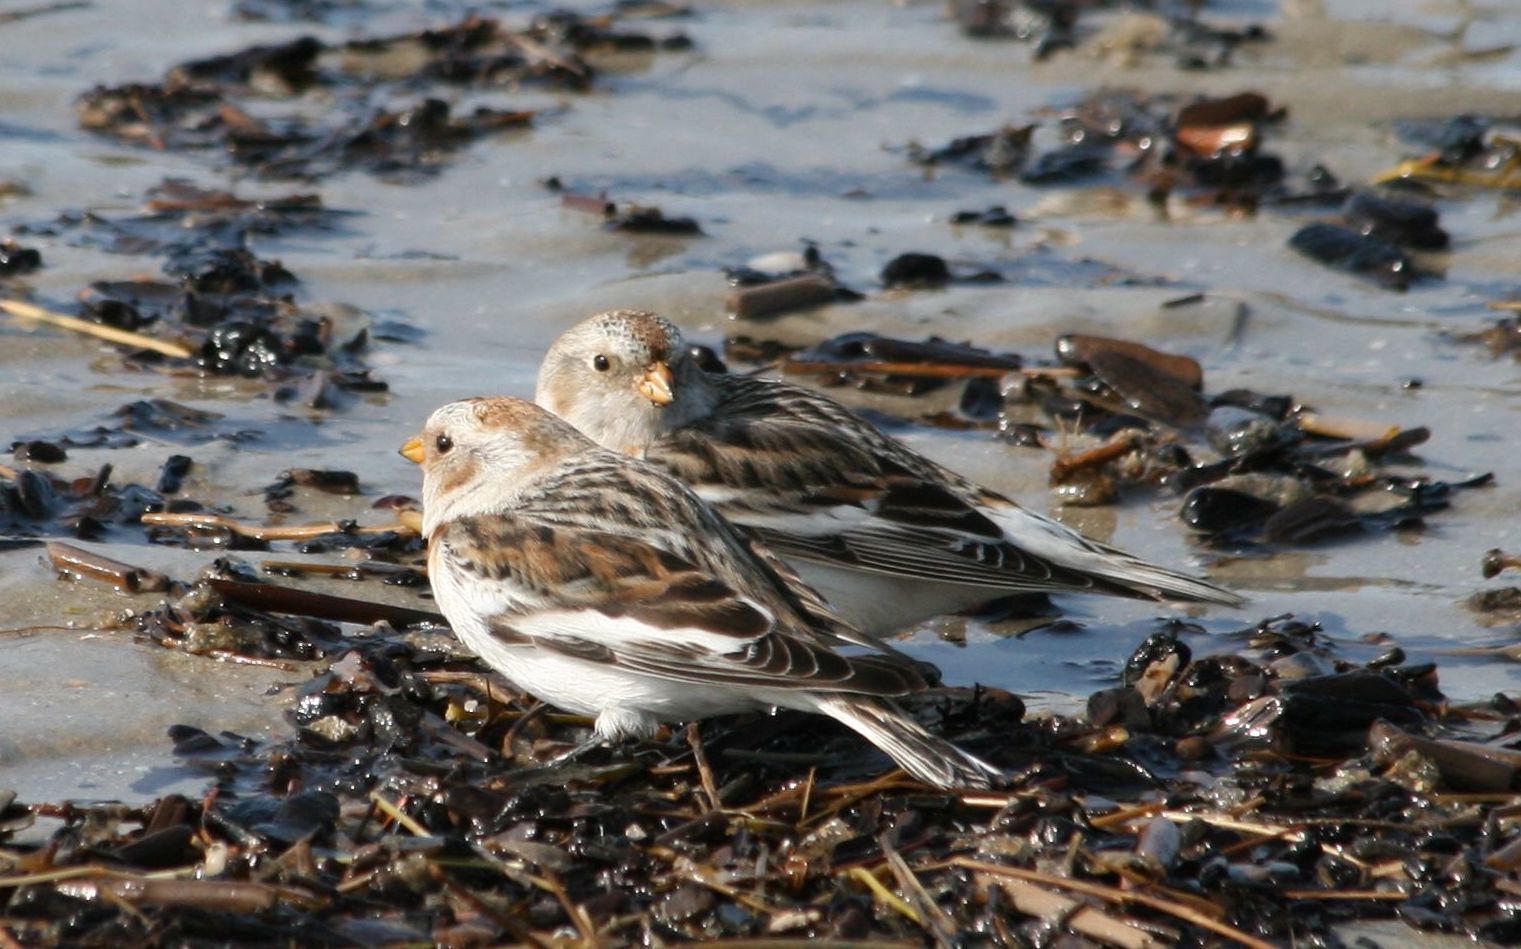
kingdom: Animalia
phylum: Chordata
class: Aves
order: Passeriformes
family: Calcariidae
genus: Plectrophenax
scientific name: Plectrophenax nivalis
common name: Snow bunting
